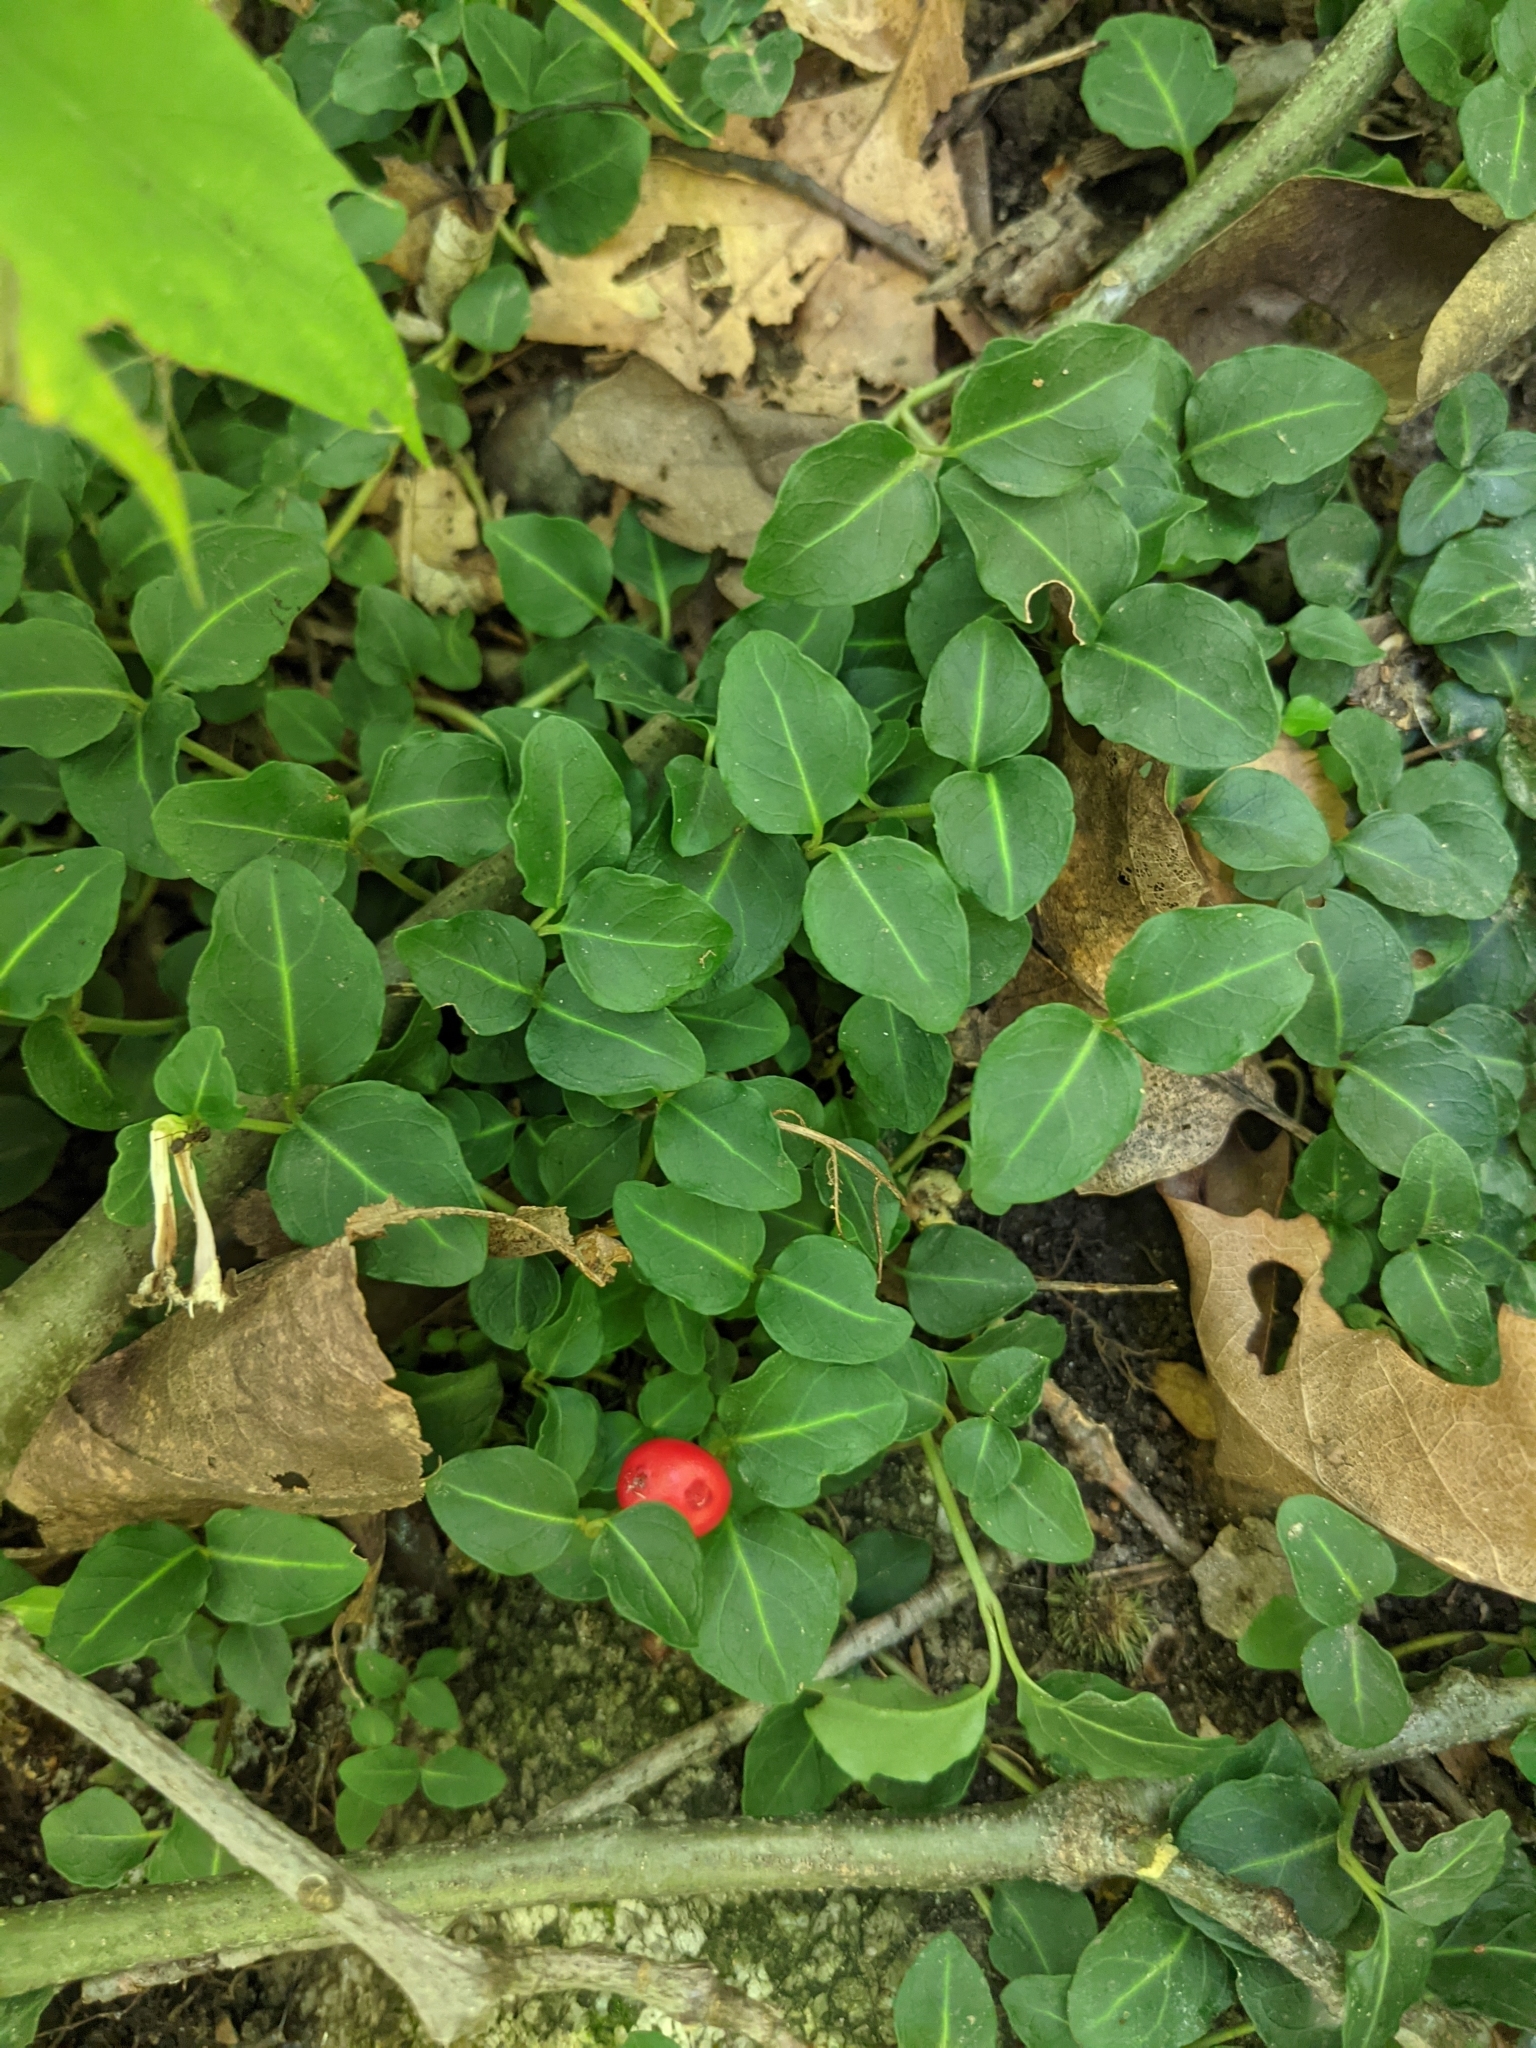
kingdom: Plantae
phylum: Tracheophyta
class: Magnoliopsida
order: Gentianales
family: Rubiaceae
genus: Mitchella
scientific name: Mitchella repens
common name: Partridge-berry
